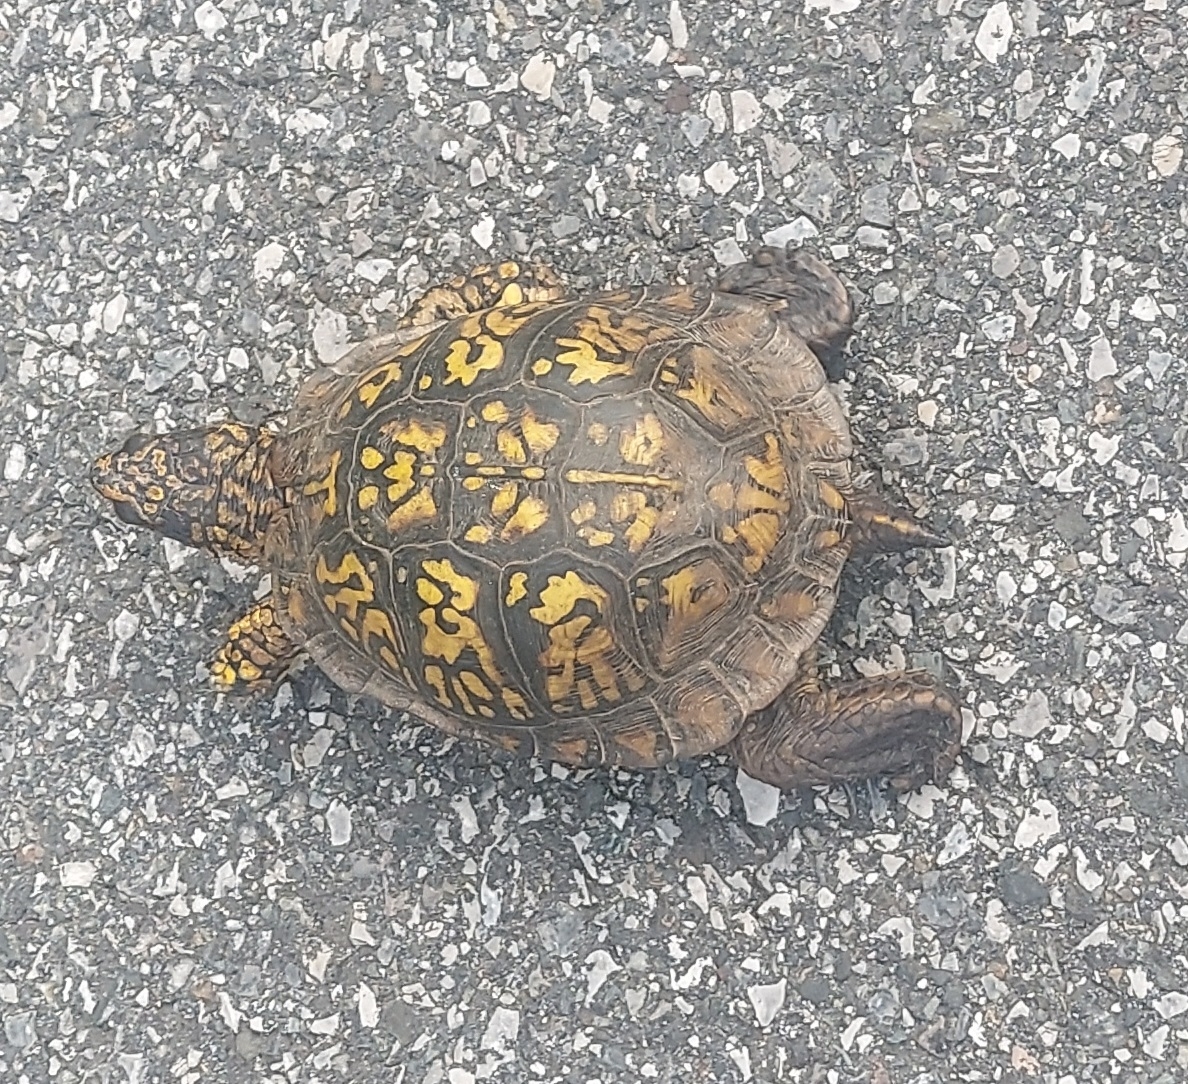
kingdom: Animalia
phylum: Chordata
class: Testudines
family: Emydidae
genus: Terrapene
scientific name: Terrapene carolina
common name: Common box turtle
